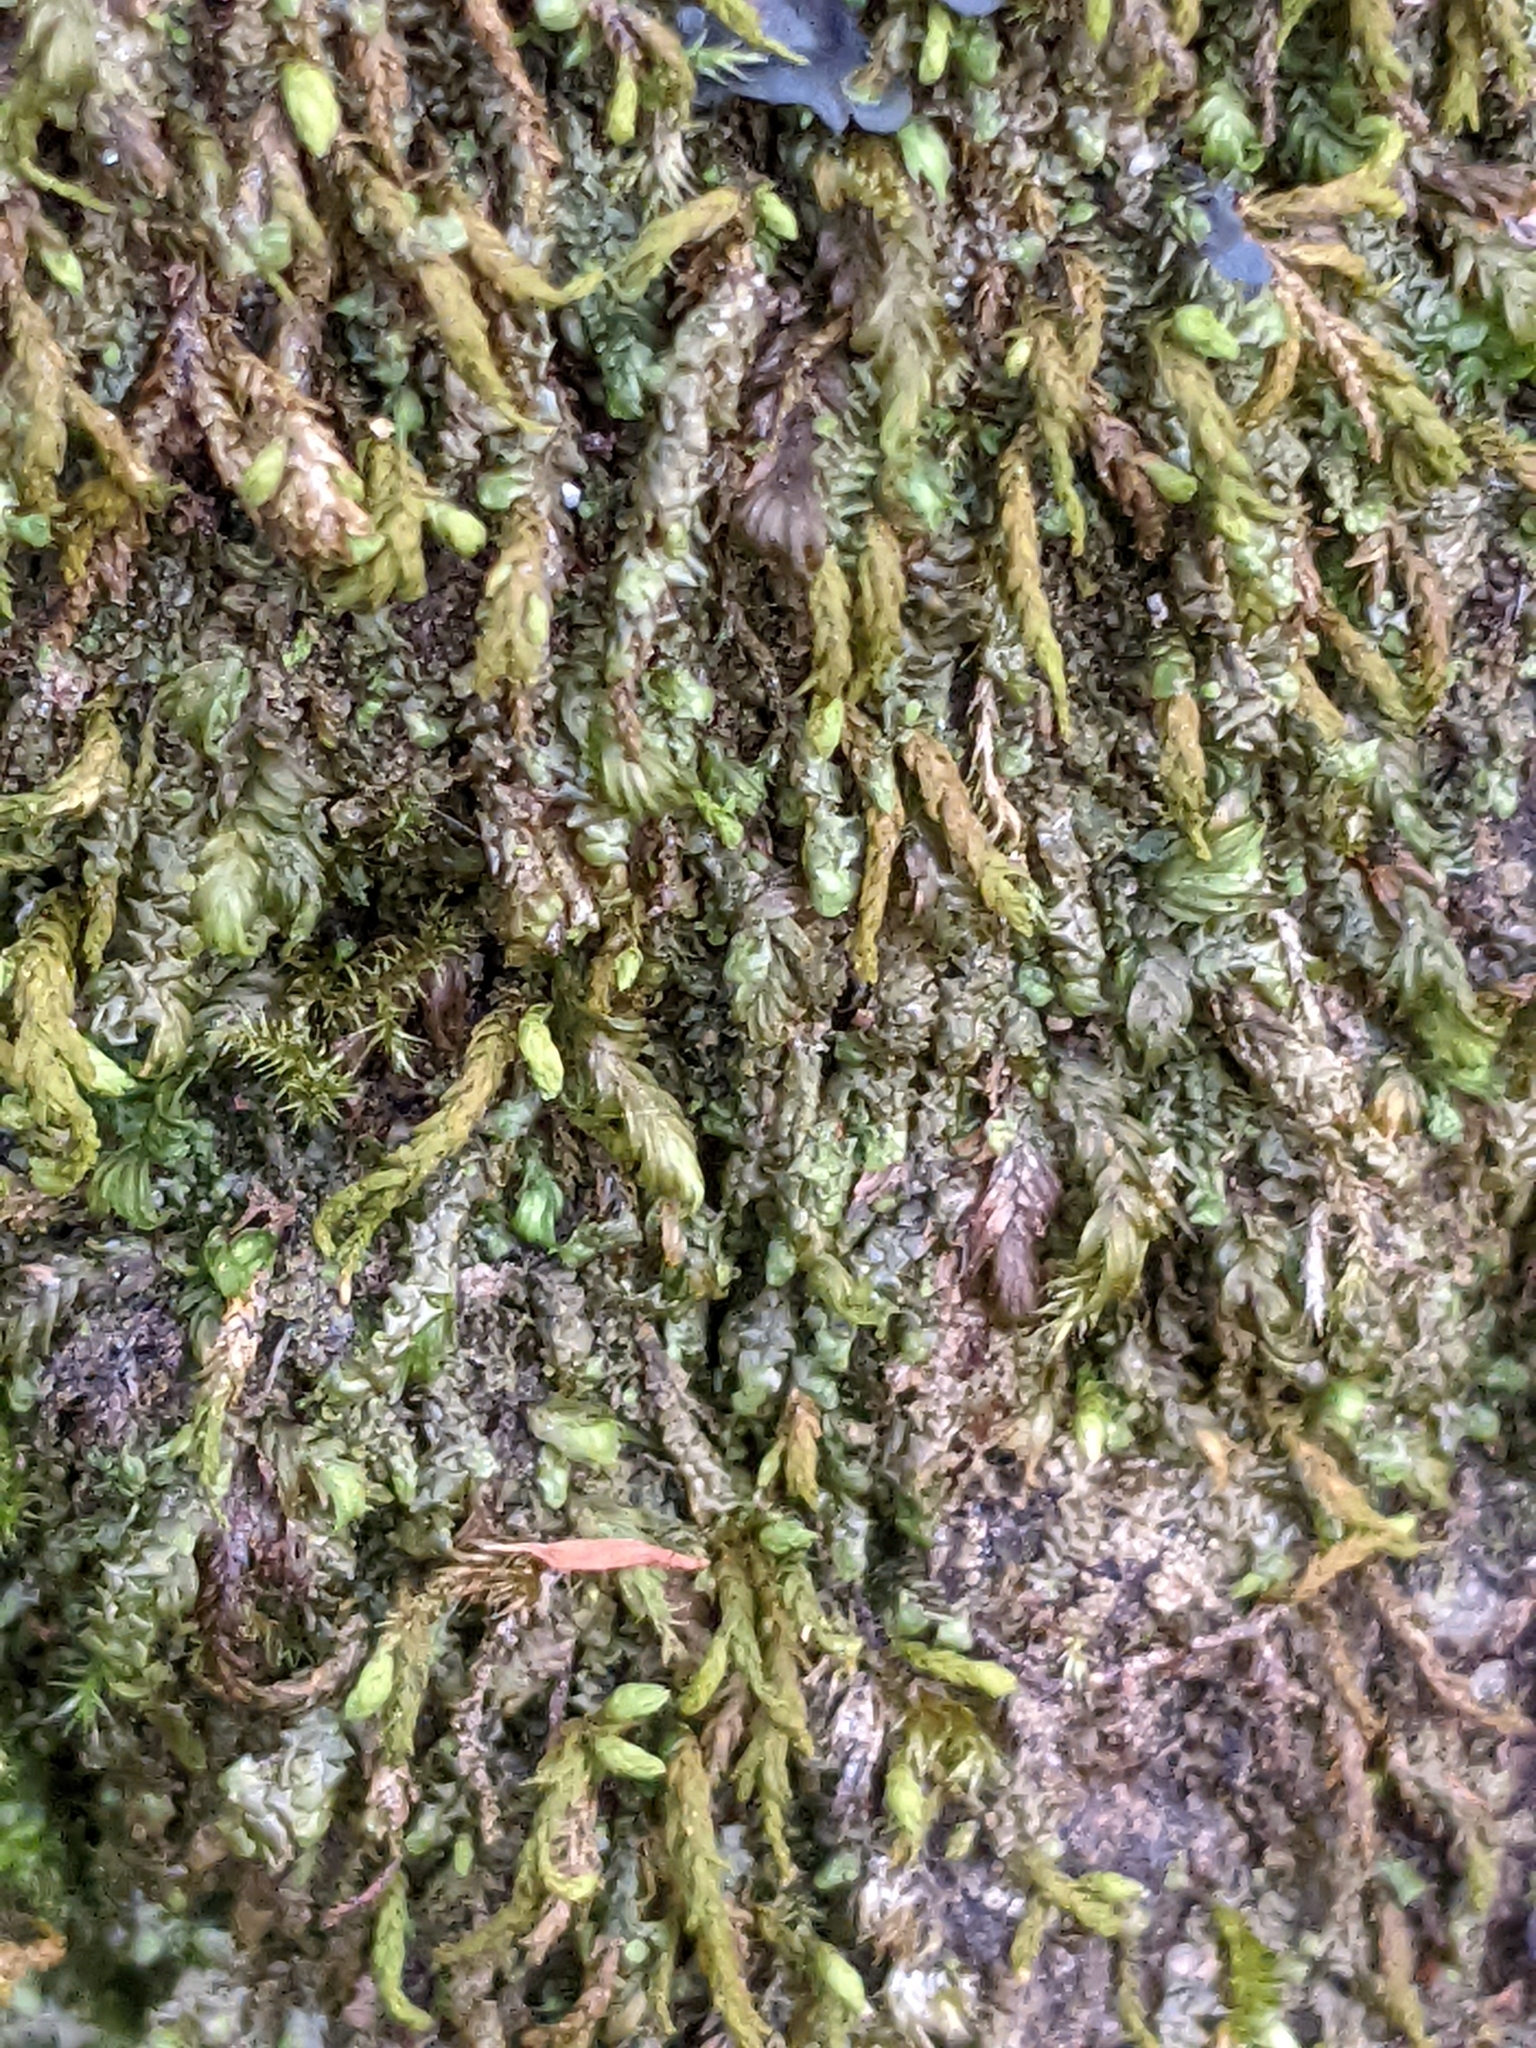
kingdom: Plantae
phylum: Bryophyta
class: Bryopsida
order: Hypnales
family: Neckeraceae
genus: Pseudanomodon
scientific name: Pseudanomodon attenuatus
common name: Tree-skirt moss
